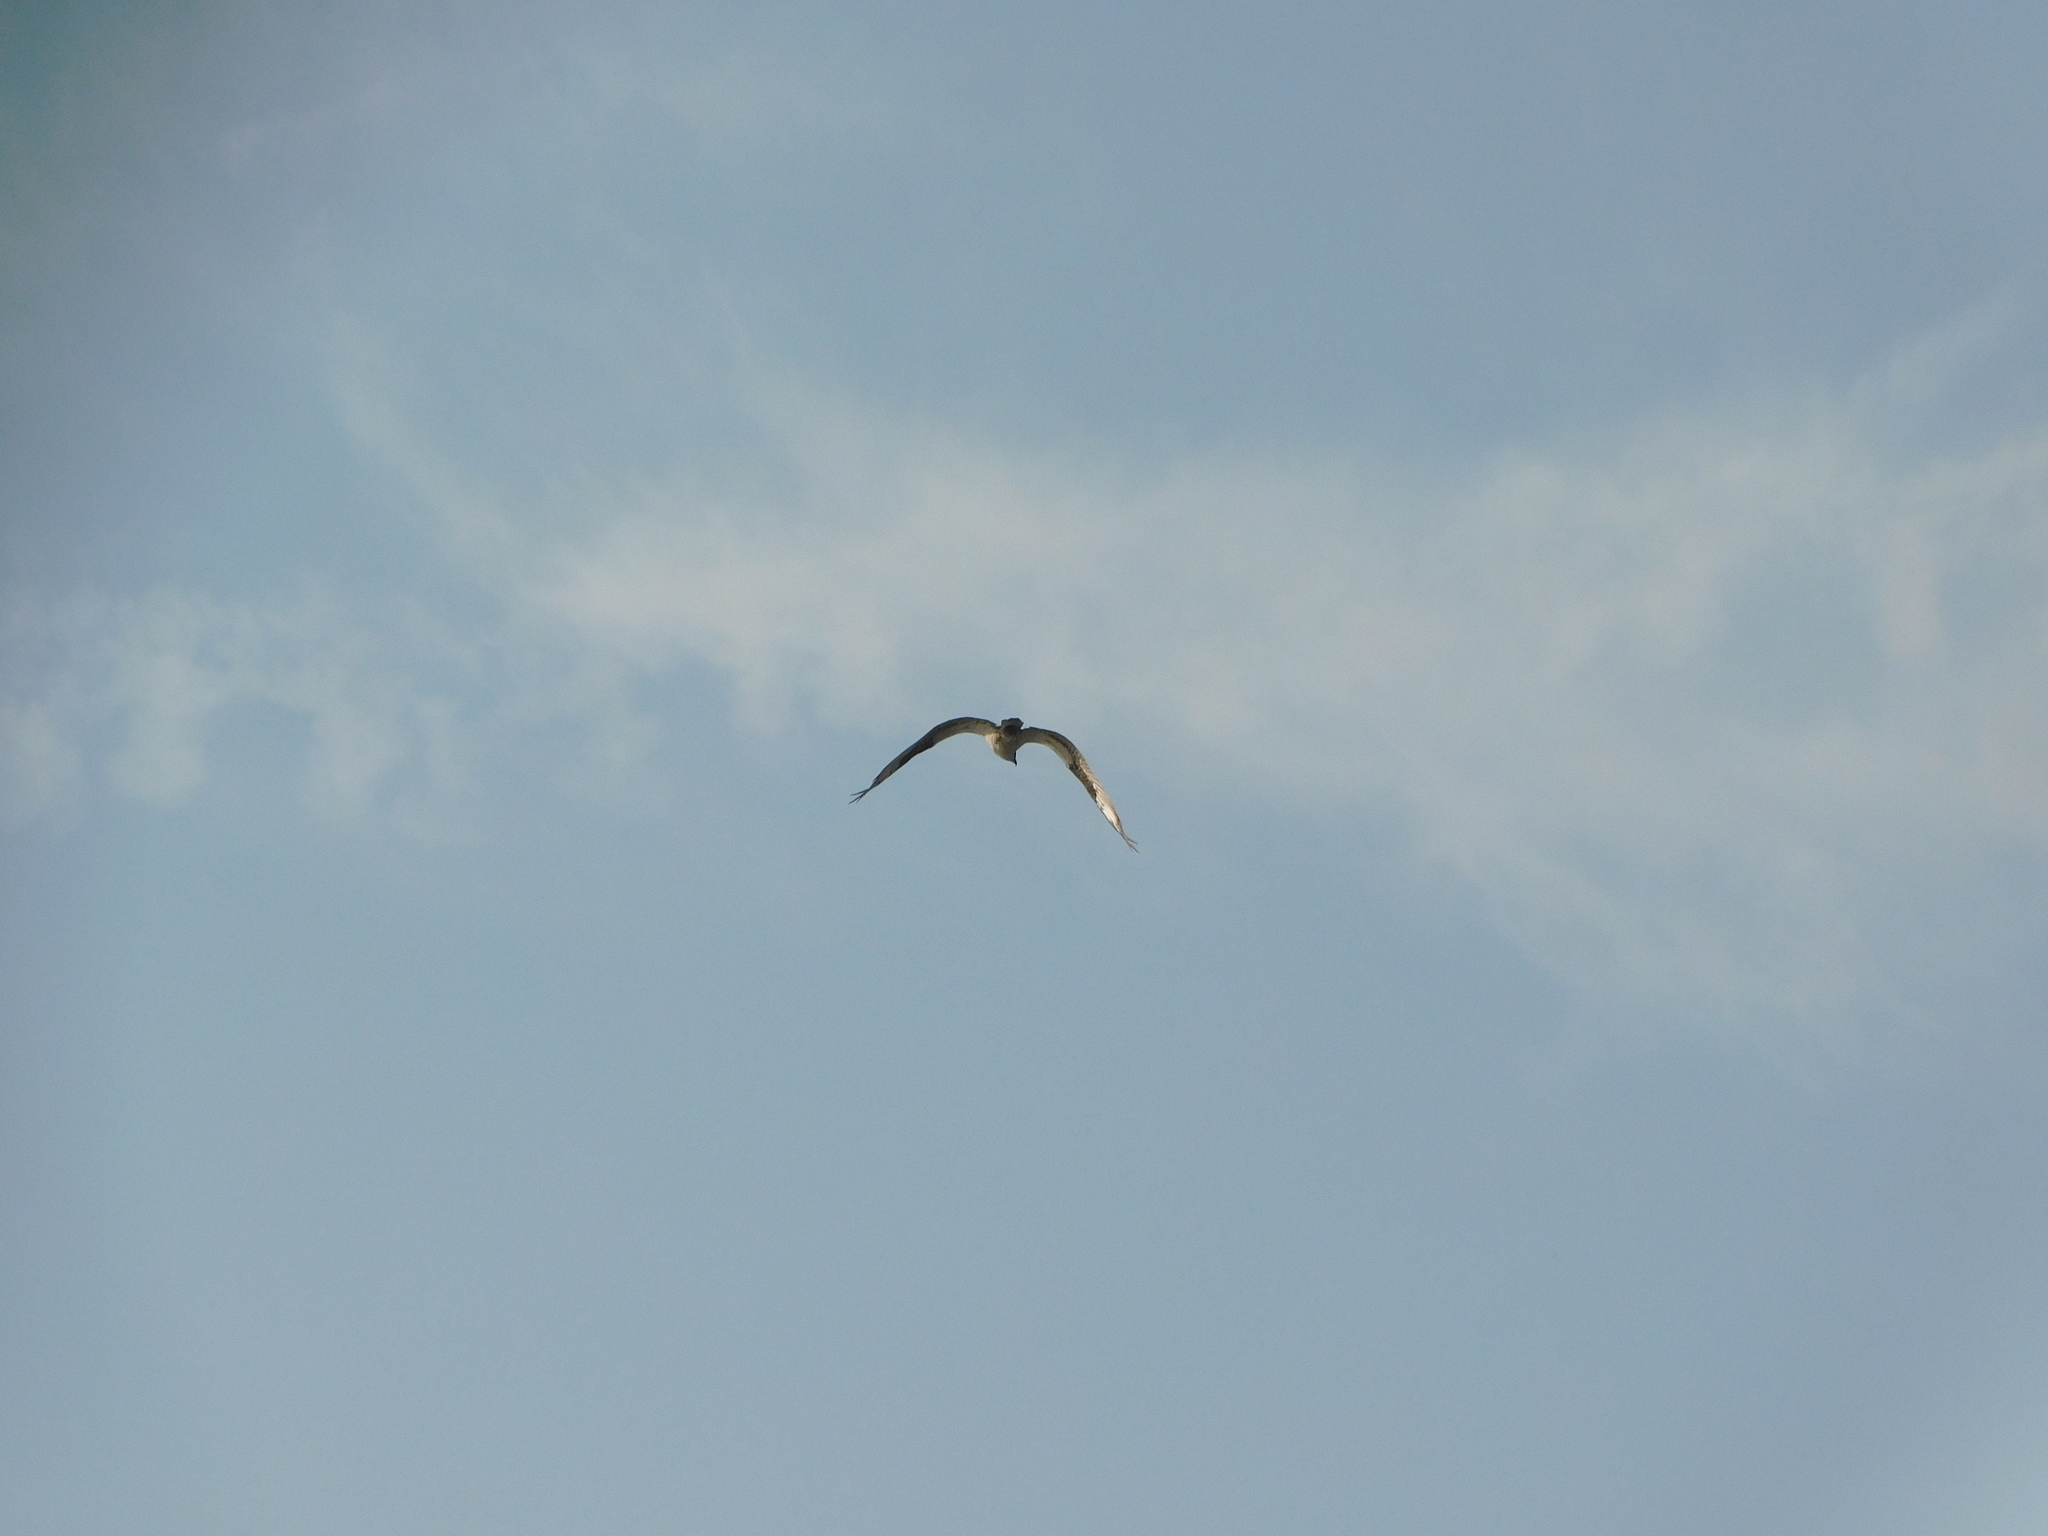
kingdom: Animalia
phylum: Chordata
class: Aves
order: Accipitriformes
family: Pandionidae
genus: Pandion
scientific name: Pandion haliaetus
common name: Osprey
